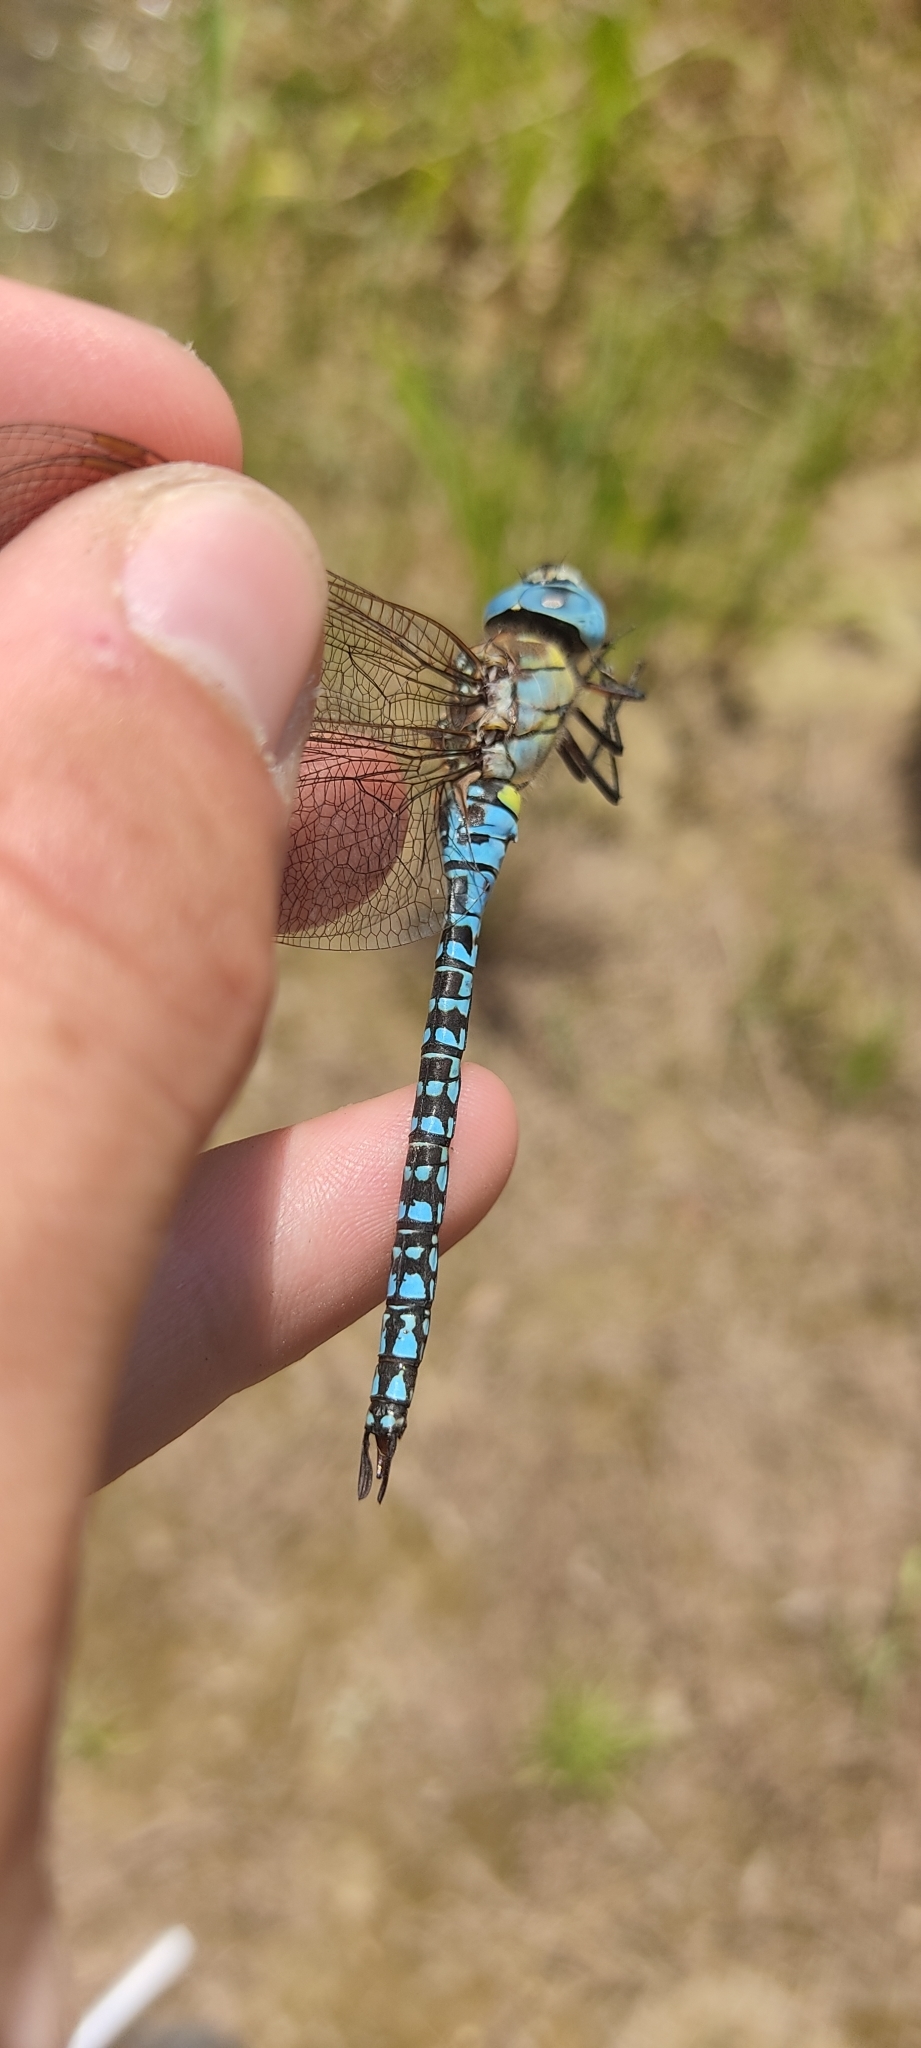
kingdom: Animalia
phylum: Arthropoda
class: Insecta
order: Odonata
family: Aeshnidae
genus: Aeshna
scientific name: Aeshna affinis
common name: Southern migrant hawker
